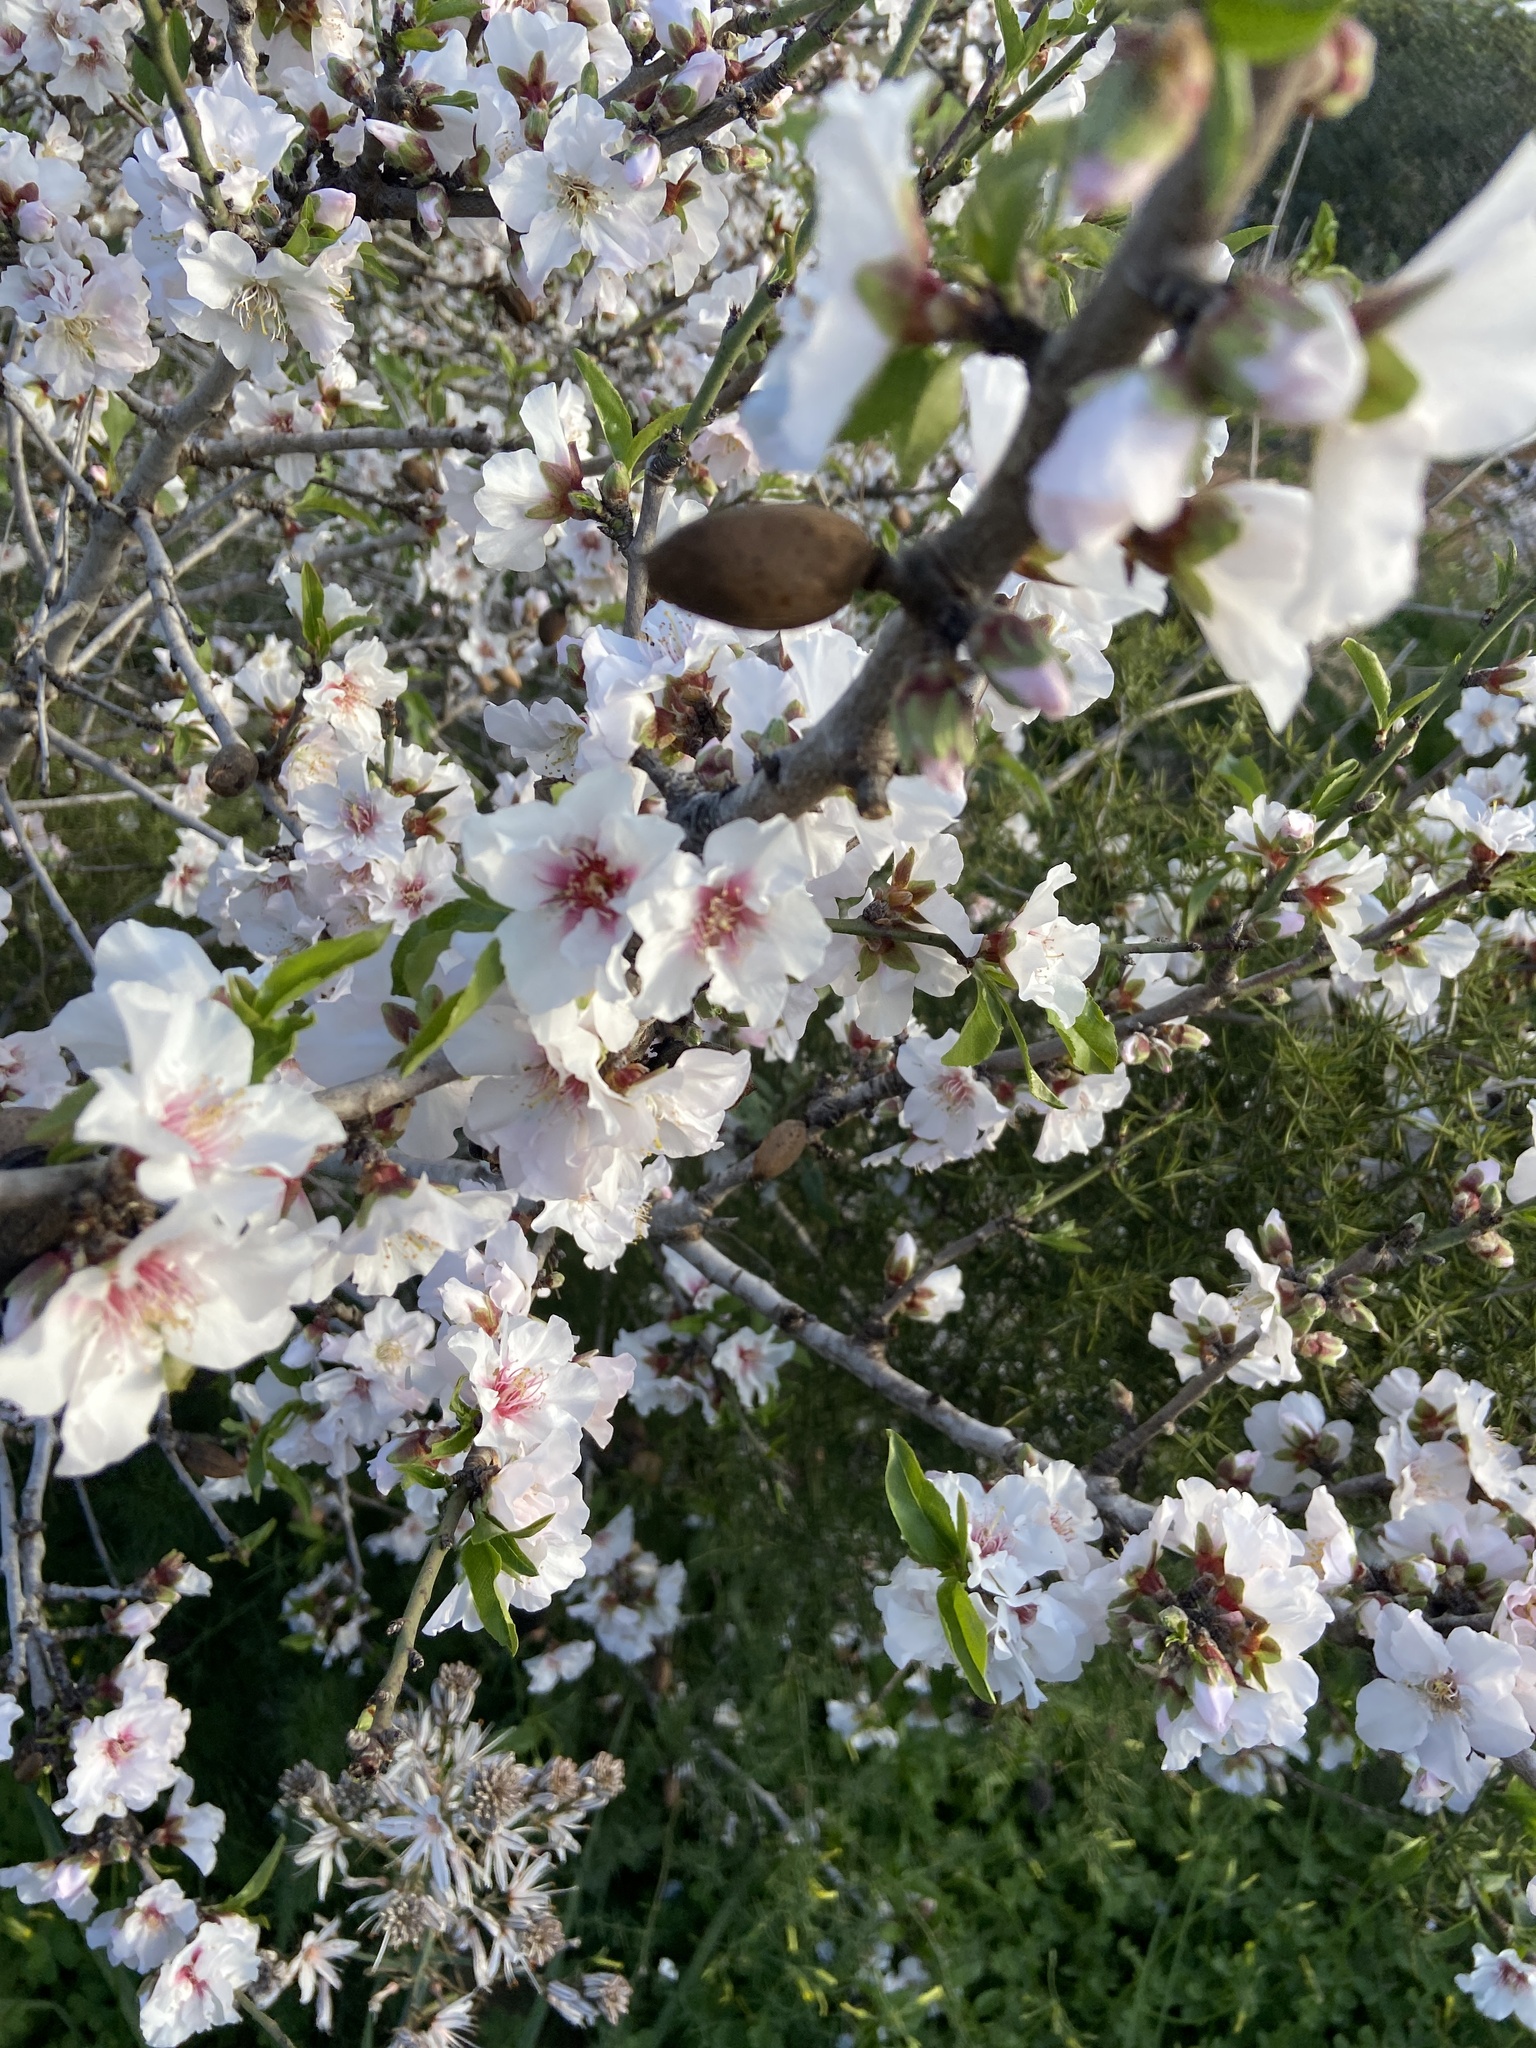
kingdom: Plantae
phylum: Tracheophyta
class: Magnoliopsida
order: Rosales
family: Rosaceae
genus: Prunus
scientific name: Prunus amygdalus
